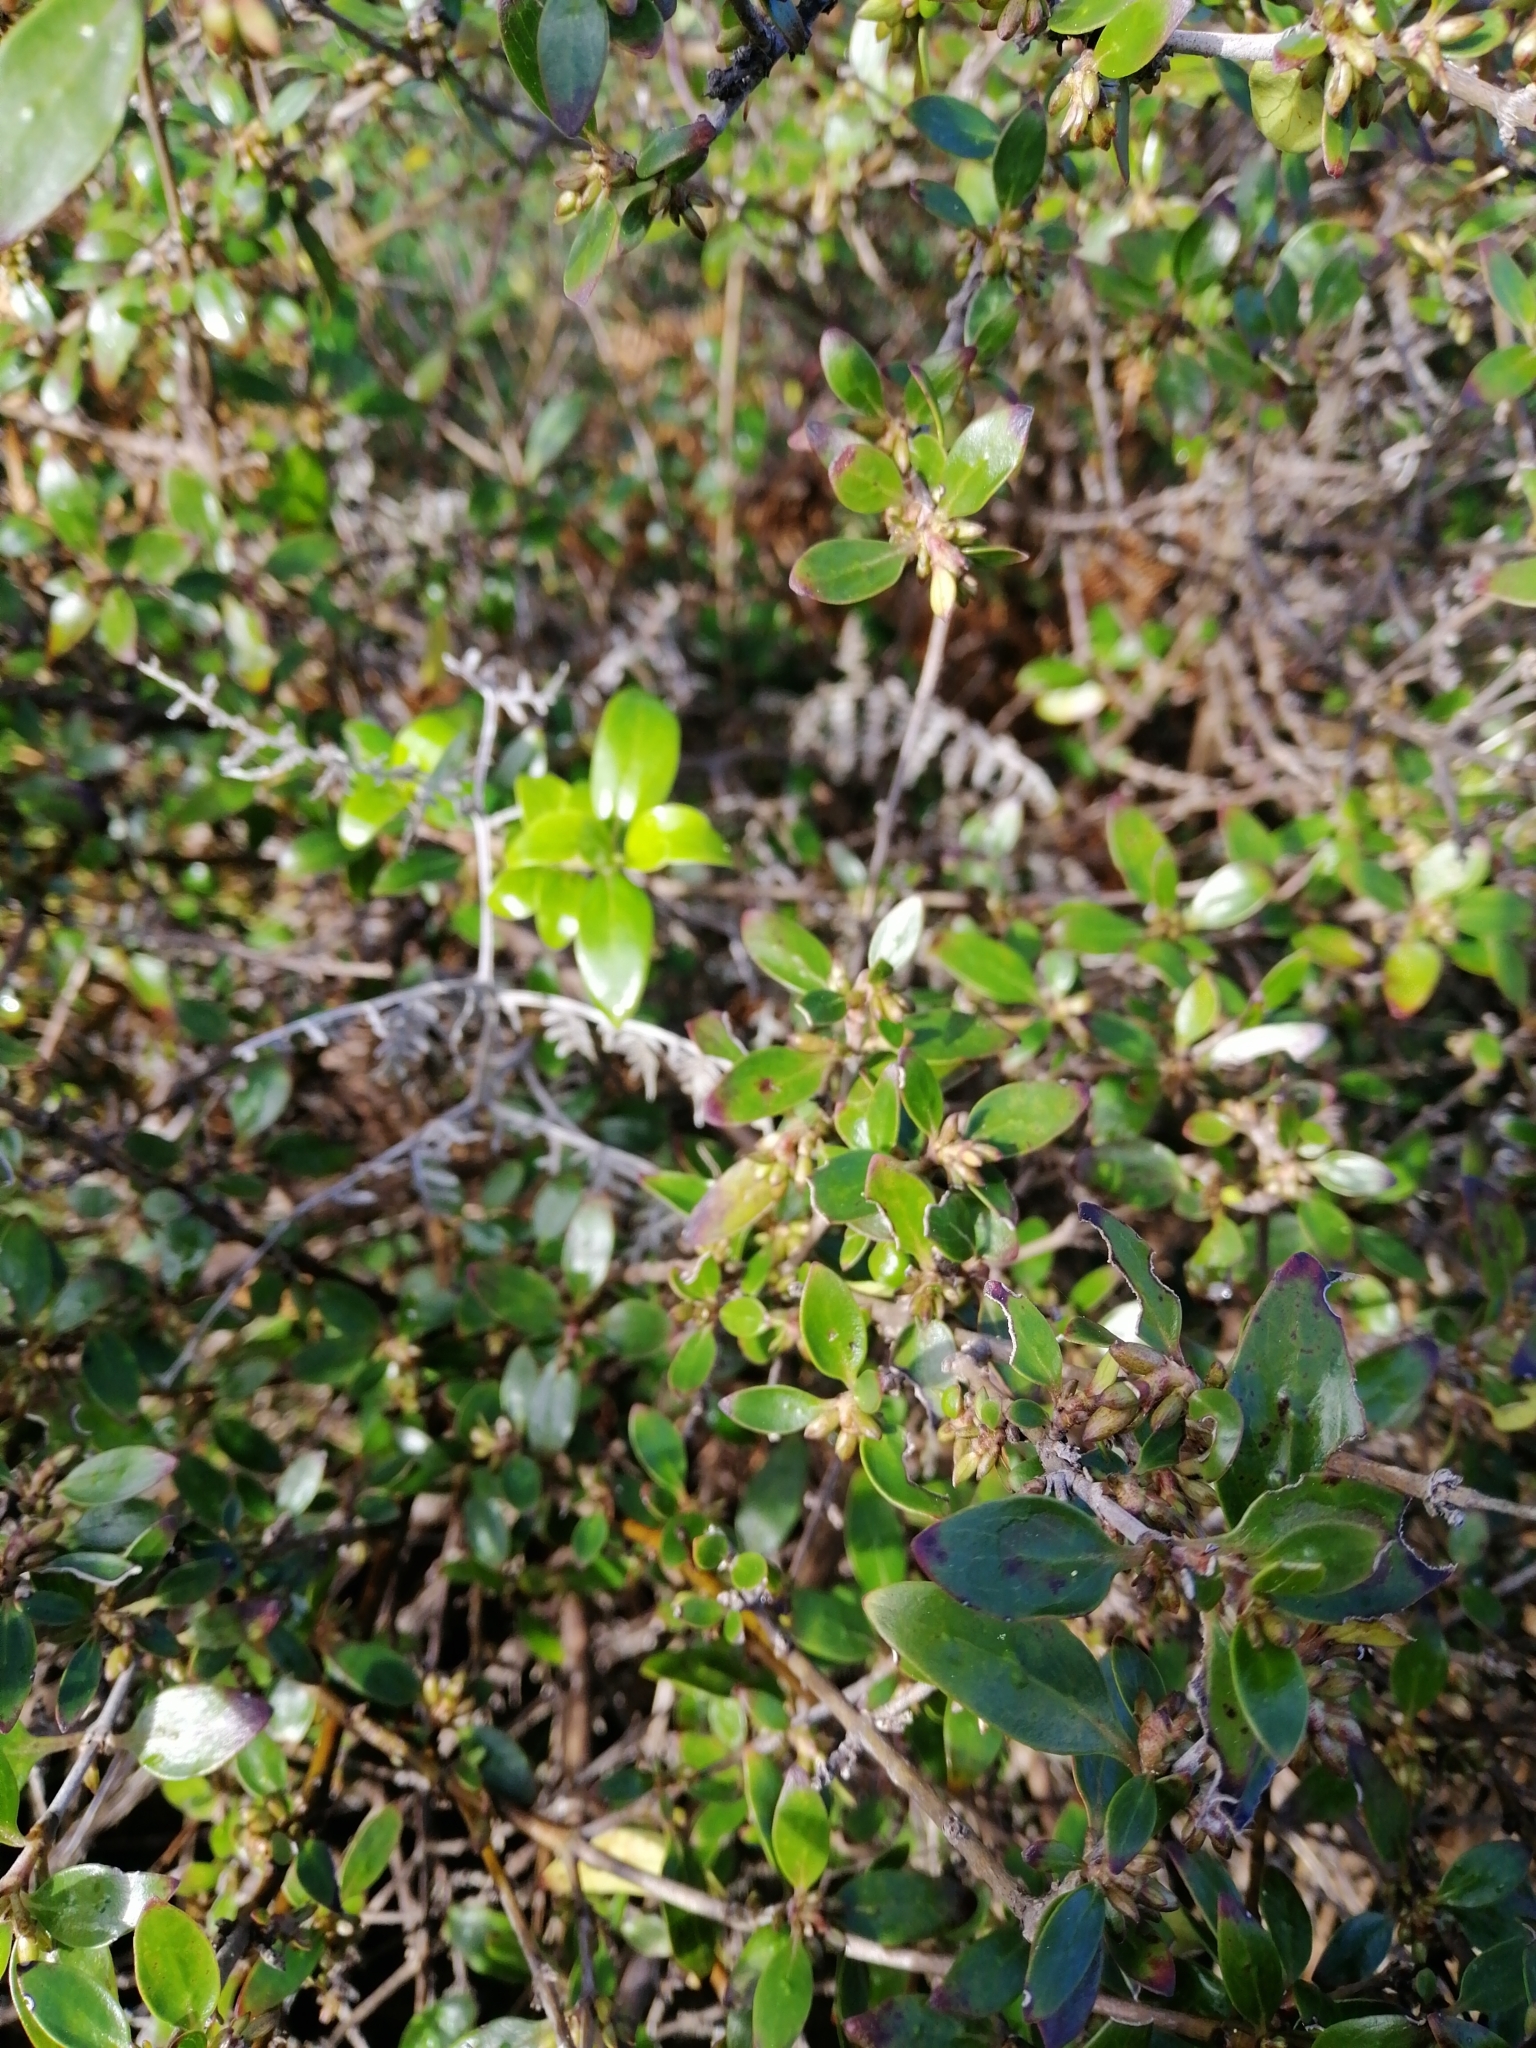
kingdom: Plantae
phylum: Tracheophyta
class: Magnoliopsida
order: Gentianales
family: Rubiaceae
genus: Coprosma
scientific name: Coprosma cunninghamii
